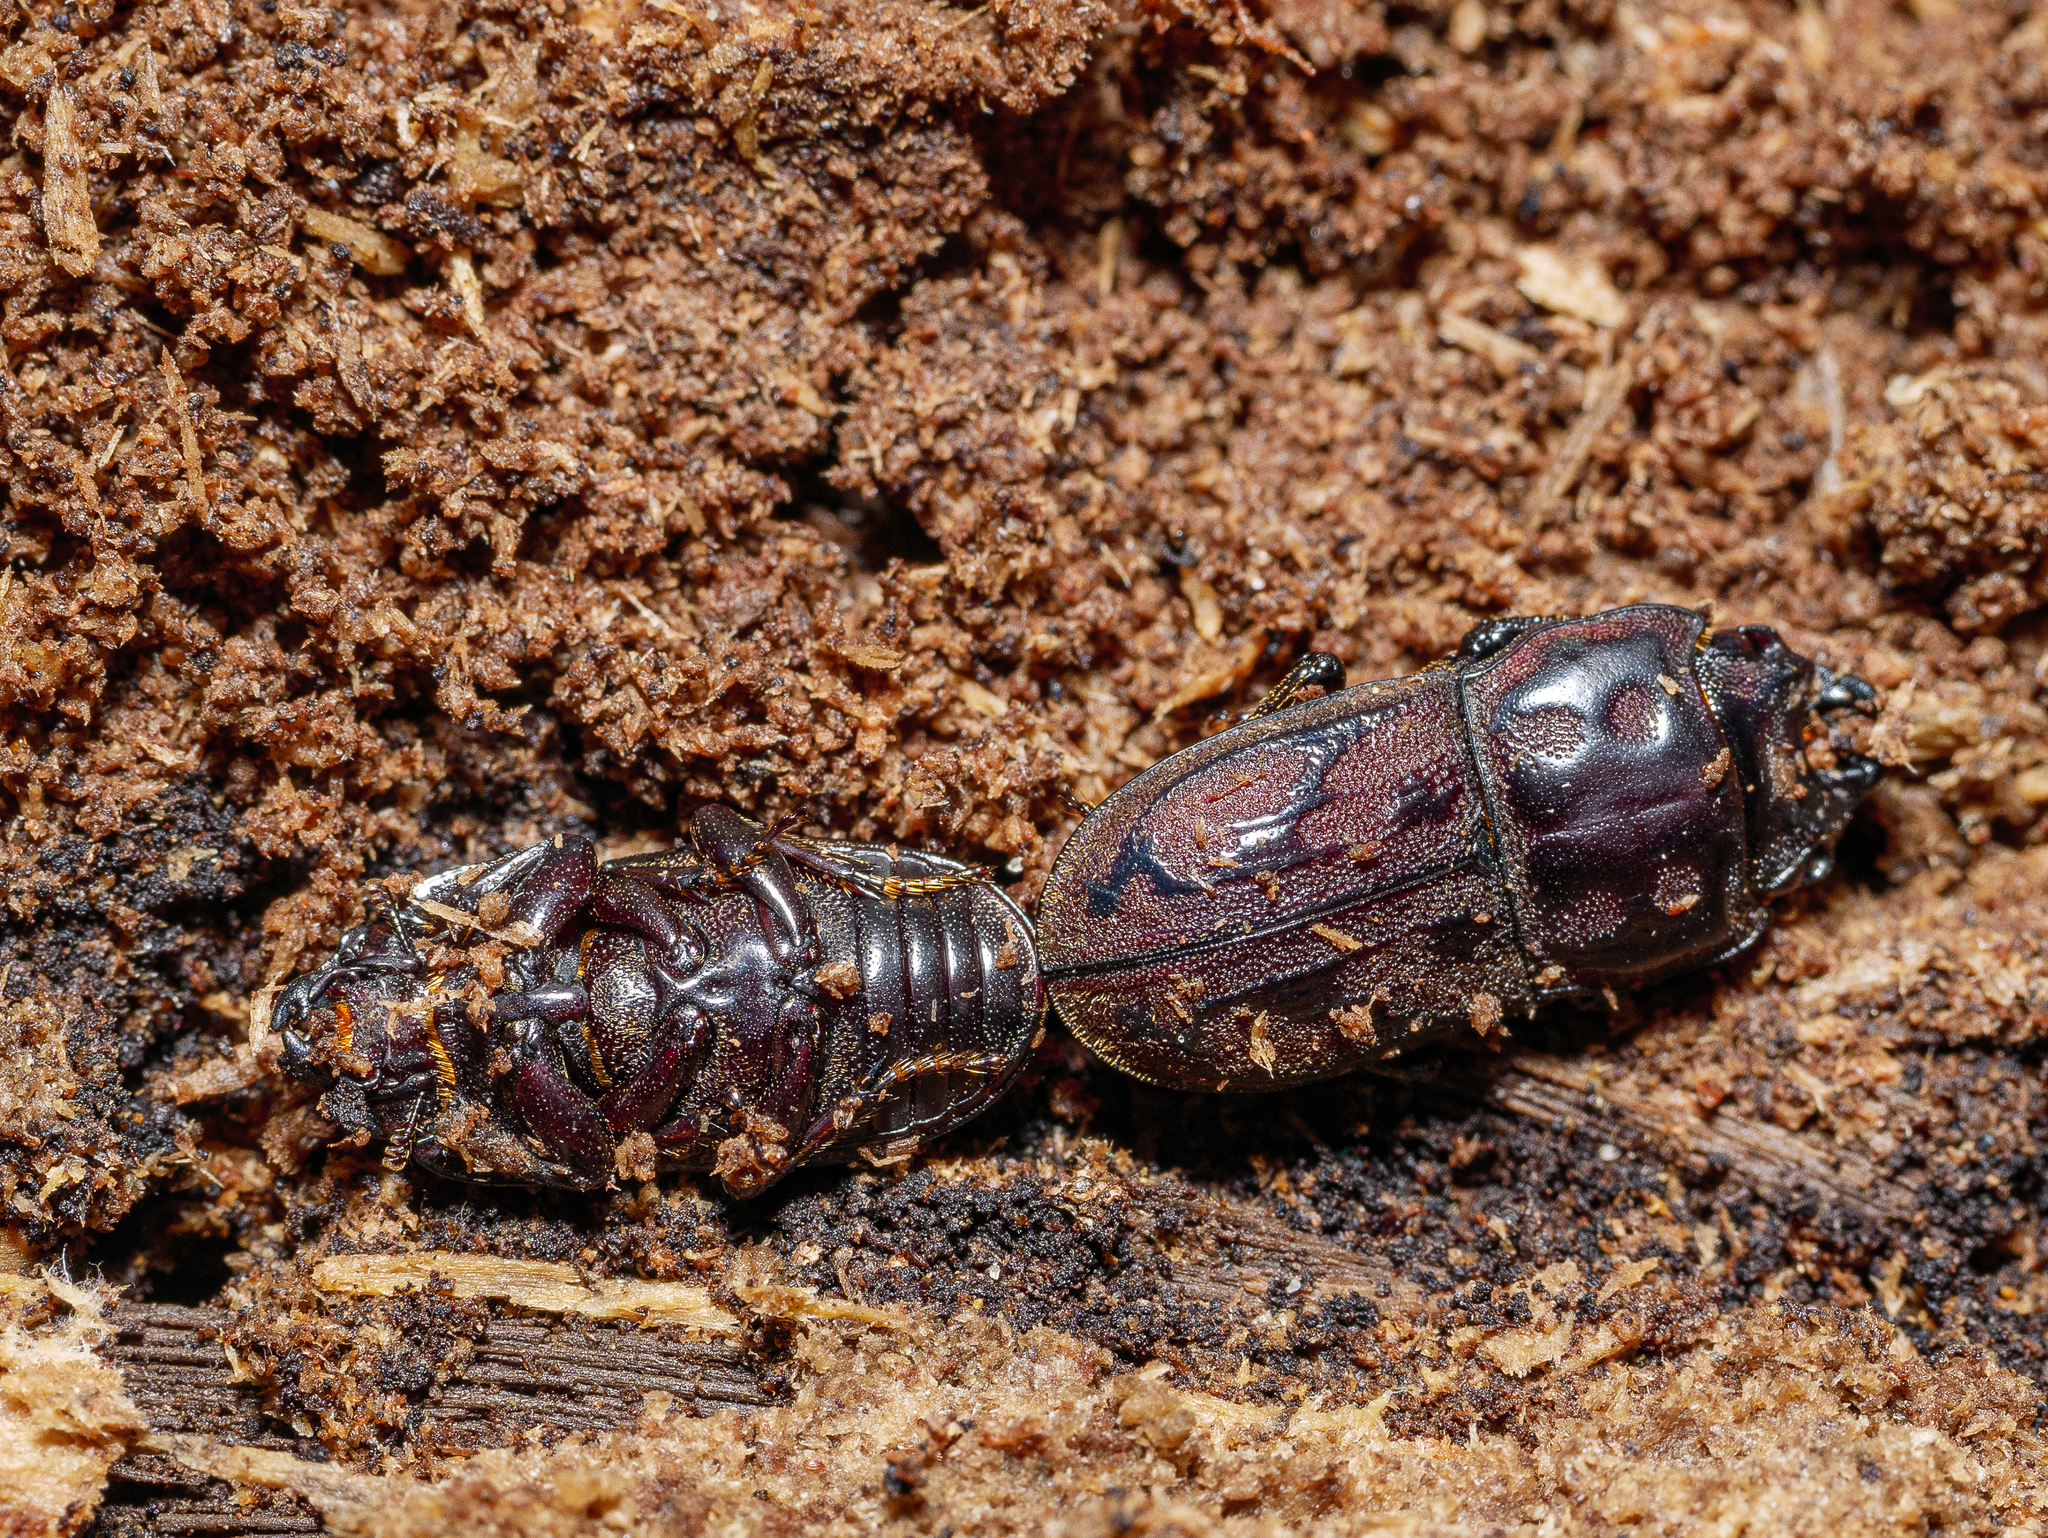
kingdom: Animalia
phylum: Arthropoda
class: Insecta
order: Coleoptera
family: Lucanidae
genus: Paralissotes
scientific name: Paralissotes reticulatus
